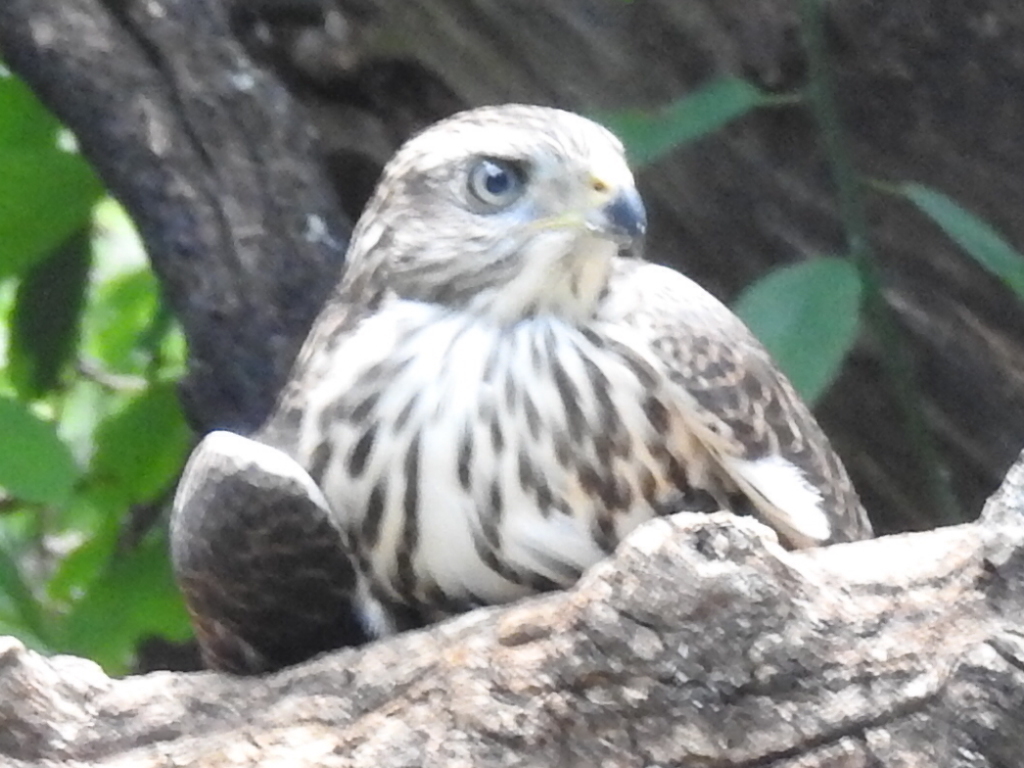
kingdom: Animalia
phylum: Chordata
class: Aves
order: Accipitriformes
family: Accipitridae
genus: Accipiter
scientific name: Accipiter cooperii
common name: Cooper's hawk
